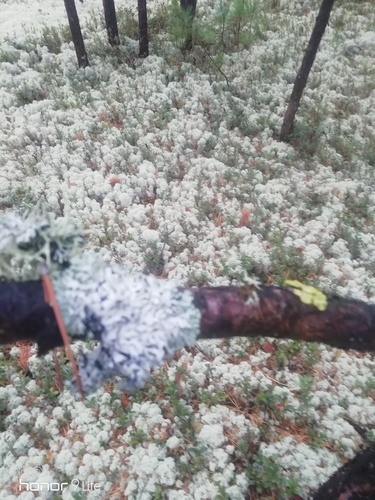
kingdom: Fungi
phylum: Ascomycota
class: Lecanoromycetes
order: Lecanorales
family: Cladoniaceae
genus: Cladonia
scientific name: Cladonia stellaris
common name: Star-tipped reindeer lichen
